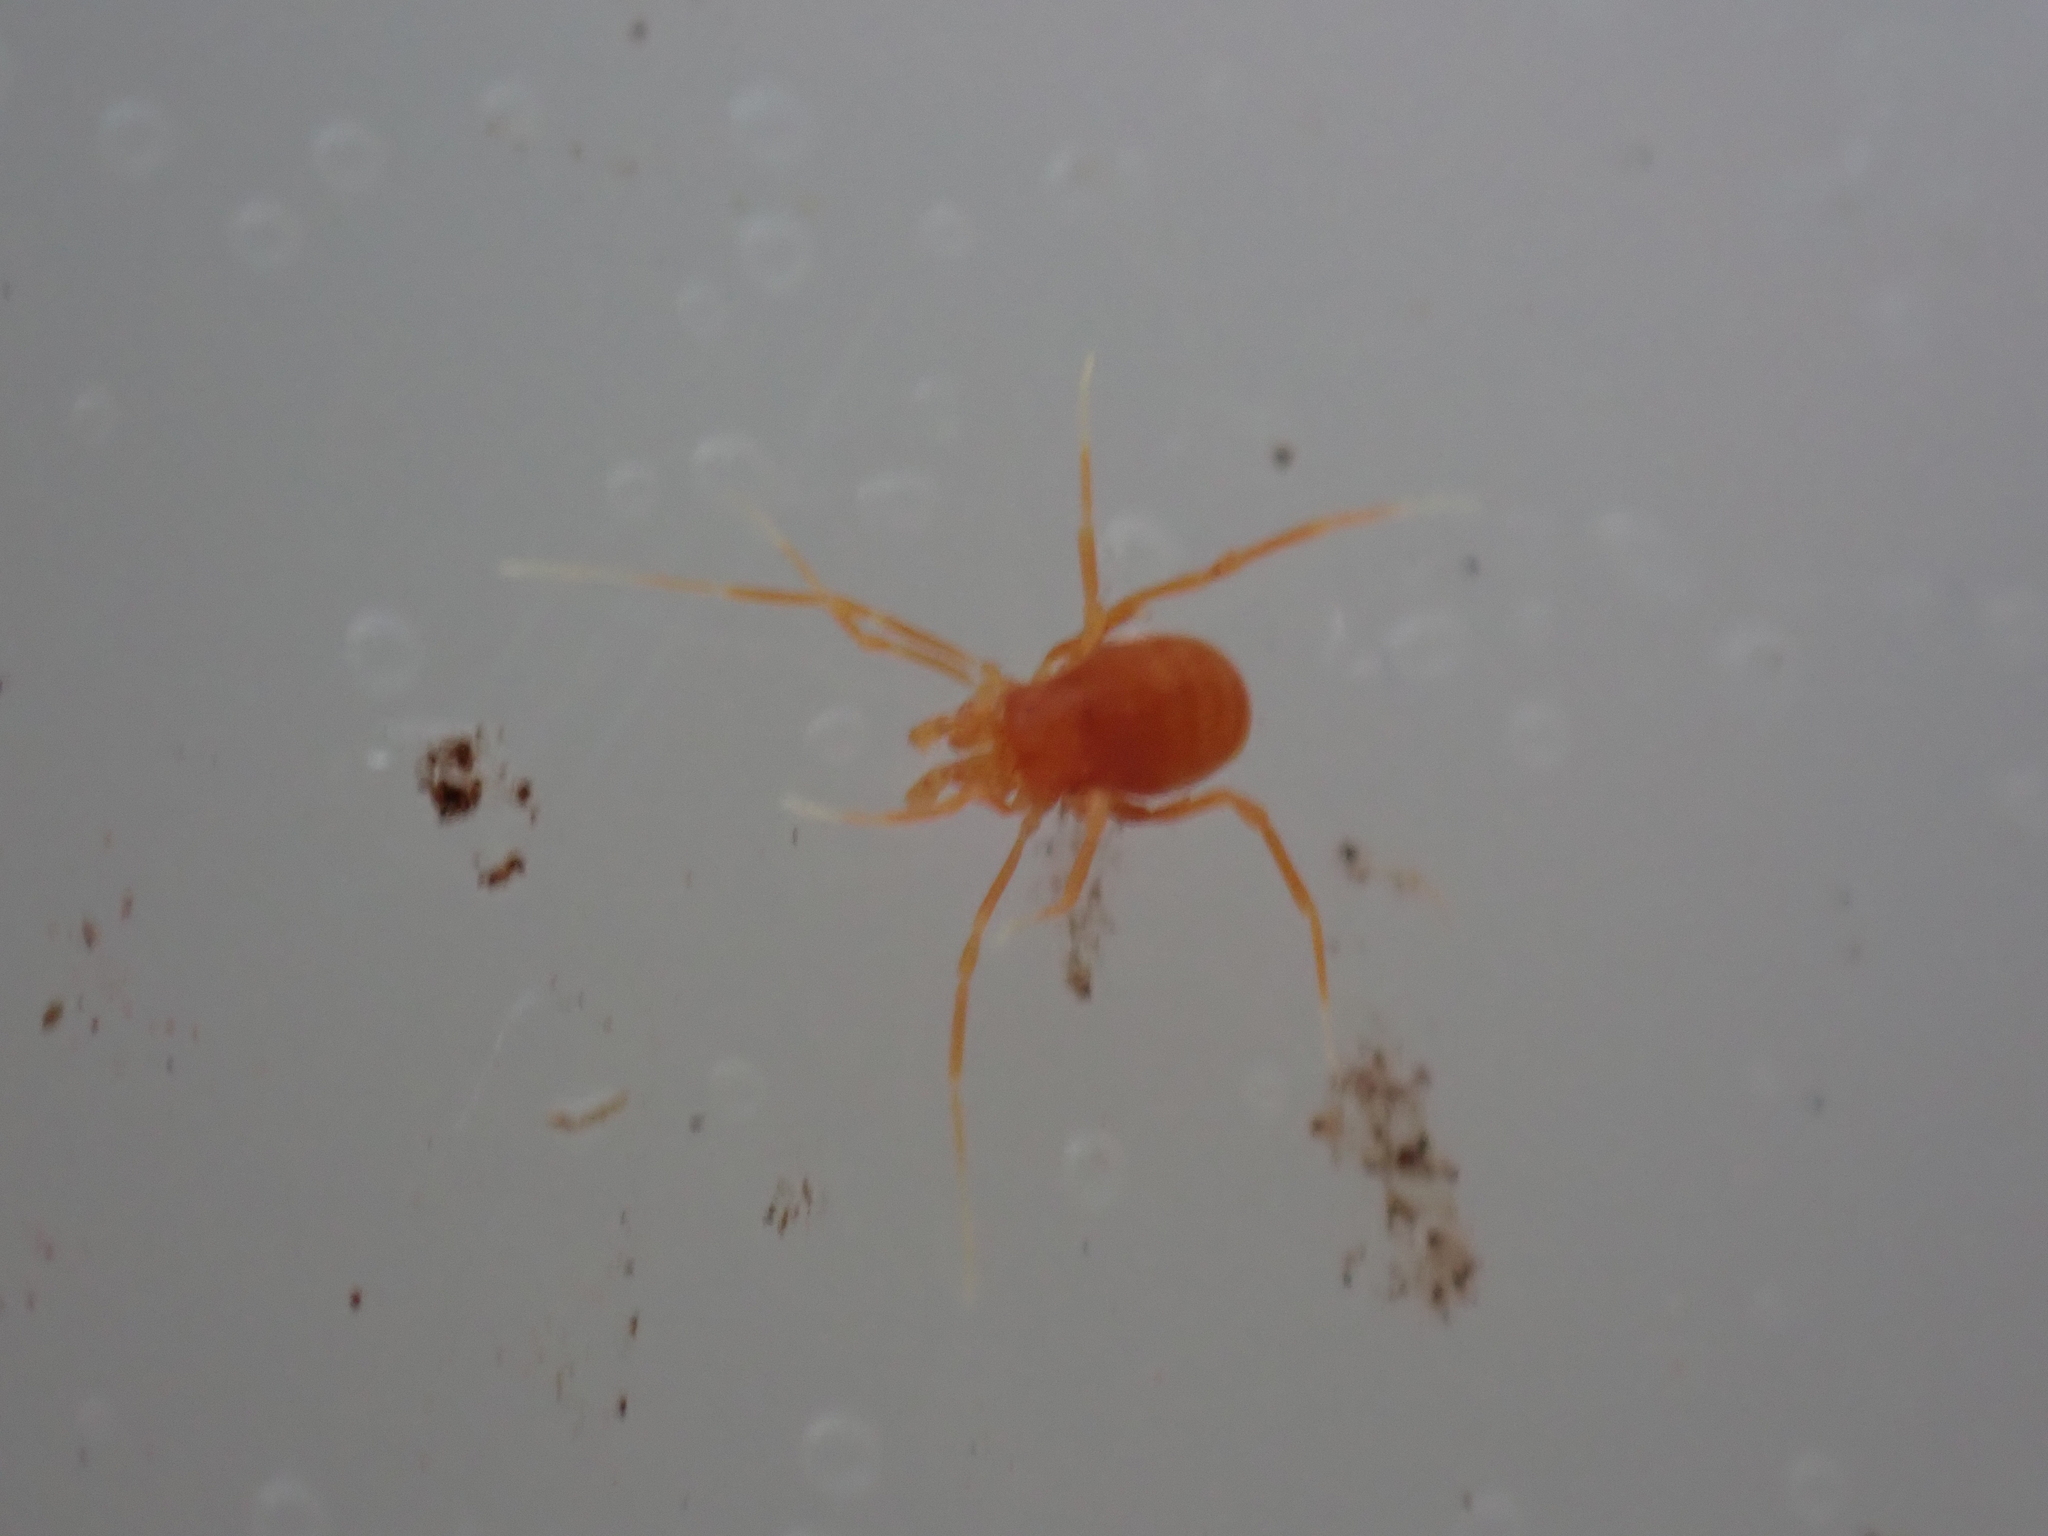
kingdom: Animalia
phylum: Arthropoda
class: Arachnida
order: Opiliones
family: Phalangodidae
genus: Scotolemon
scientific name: Scotolemon doriae
